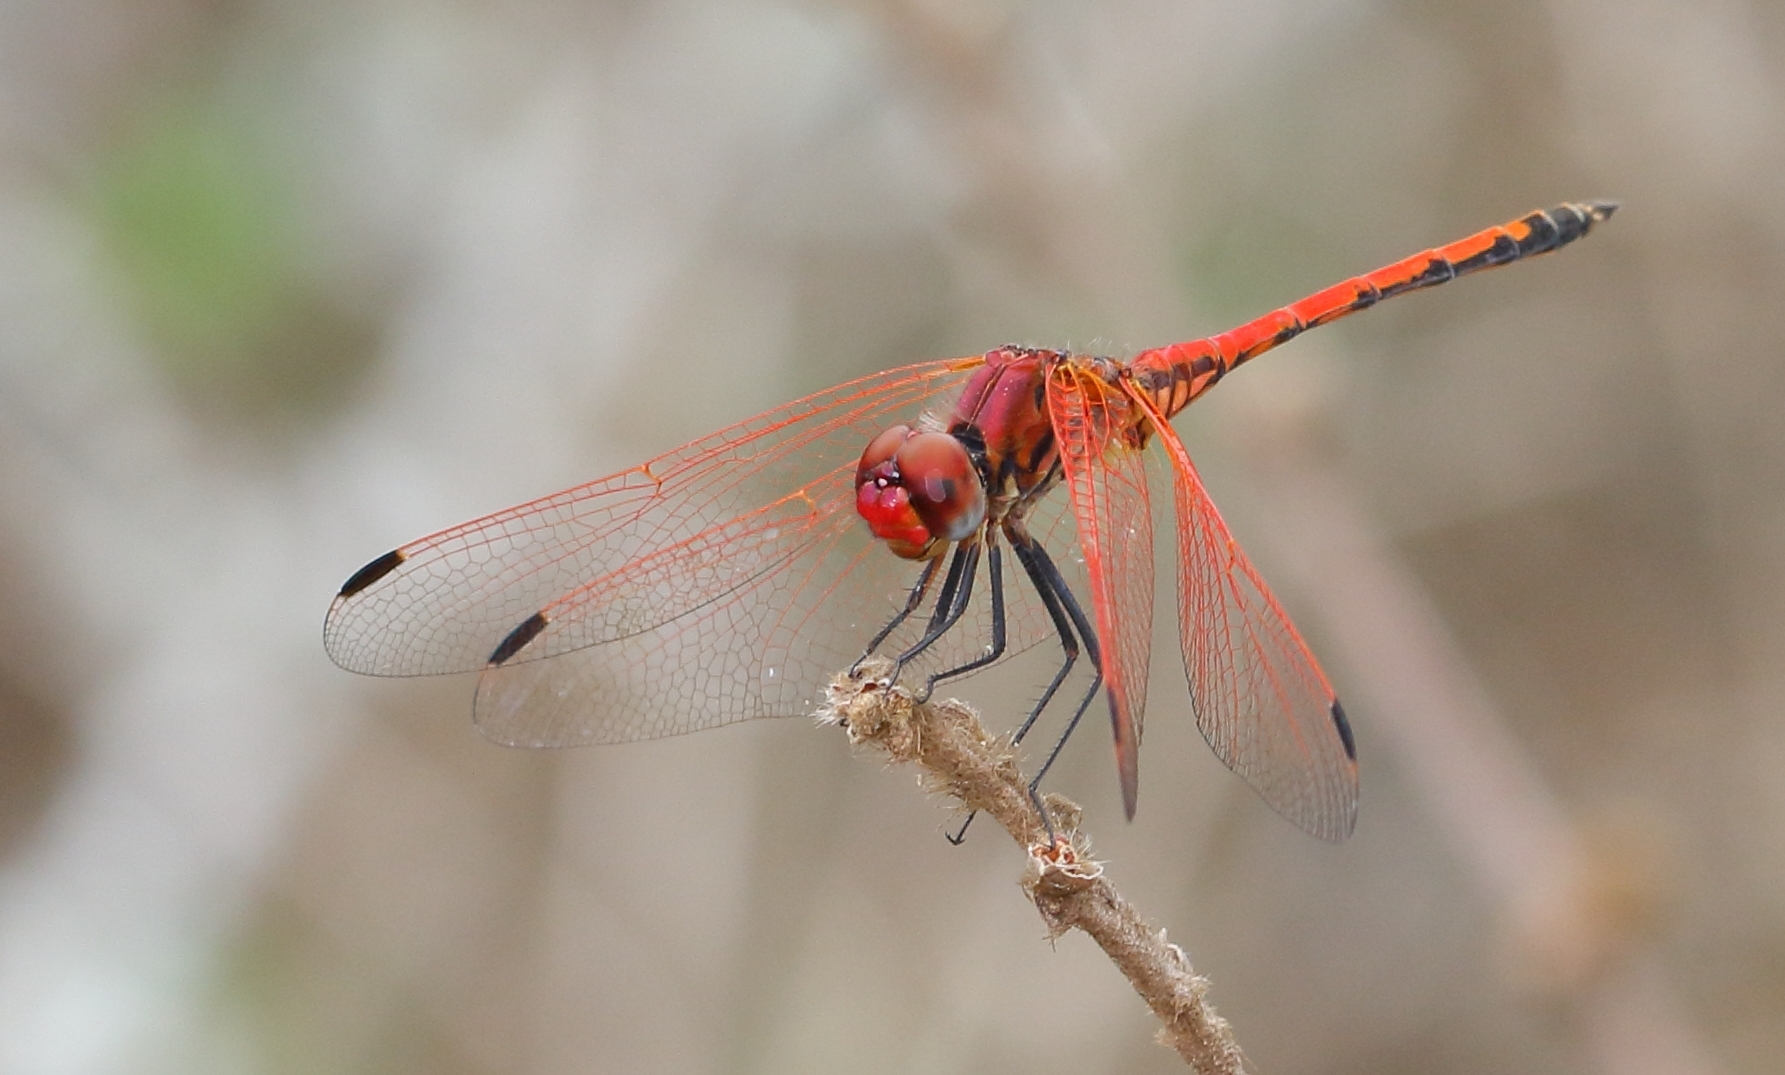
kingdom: Animalia
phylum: Arthropoda
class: Insecta
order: Odonata
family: Libellulidae
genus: Trithemis
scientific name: Trithemis arteriosa
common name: Red-veined dropwing
